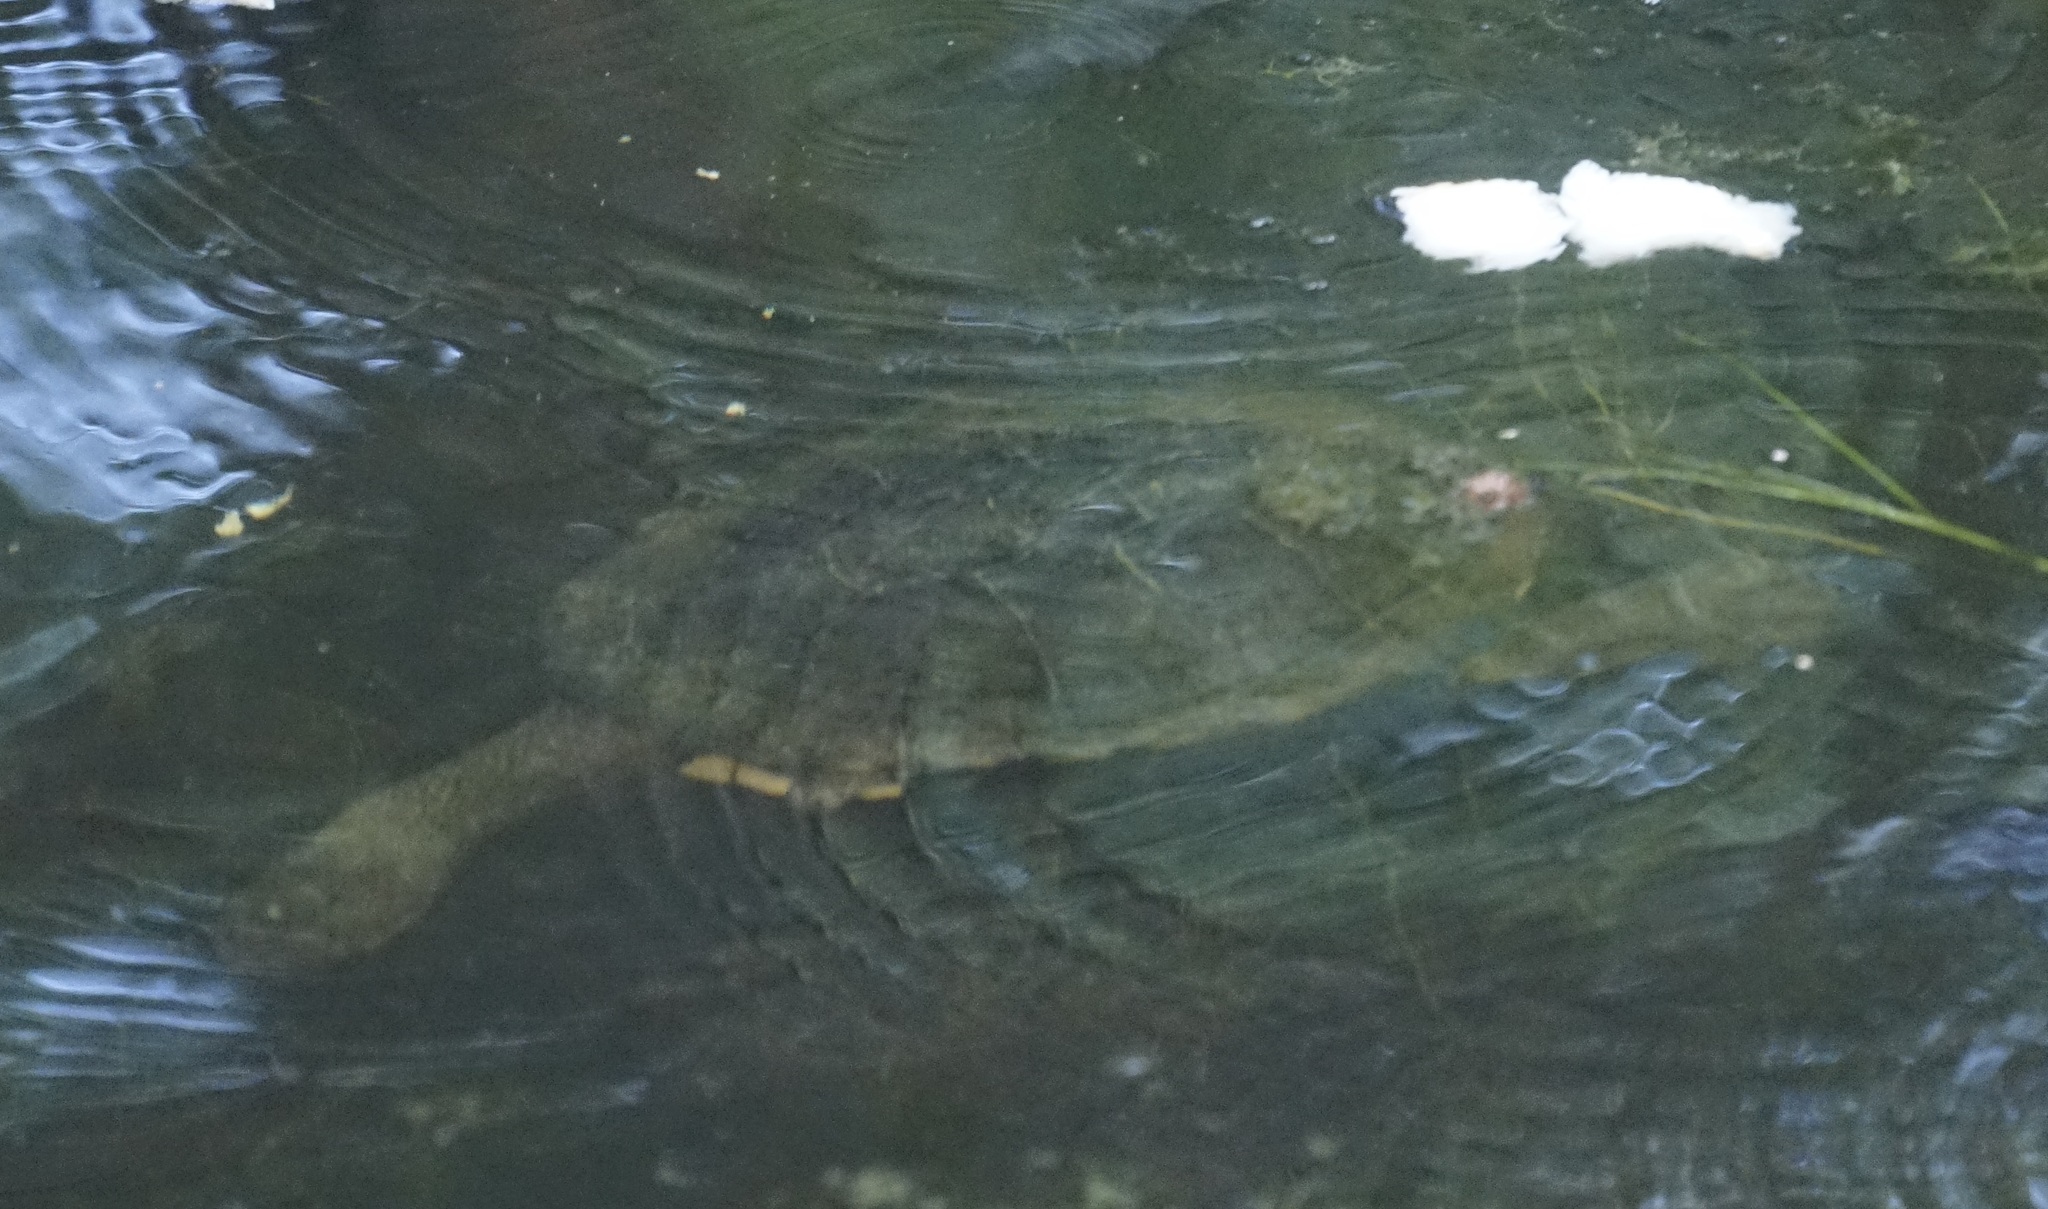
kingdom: Animalia
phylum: Chordata
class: Testudines
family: Chelidae
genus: Chelodina
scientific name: Chelodina longicollis
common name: Eastern snake-necked turtle
